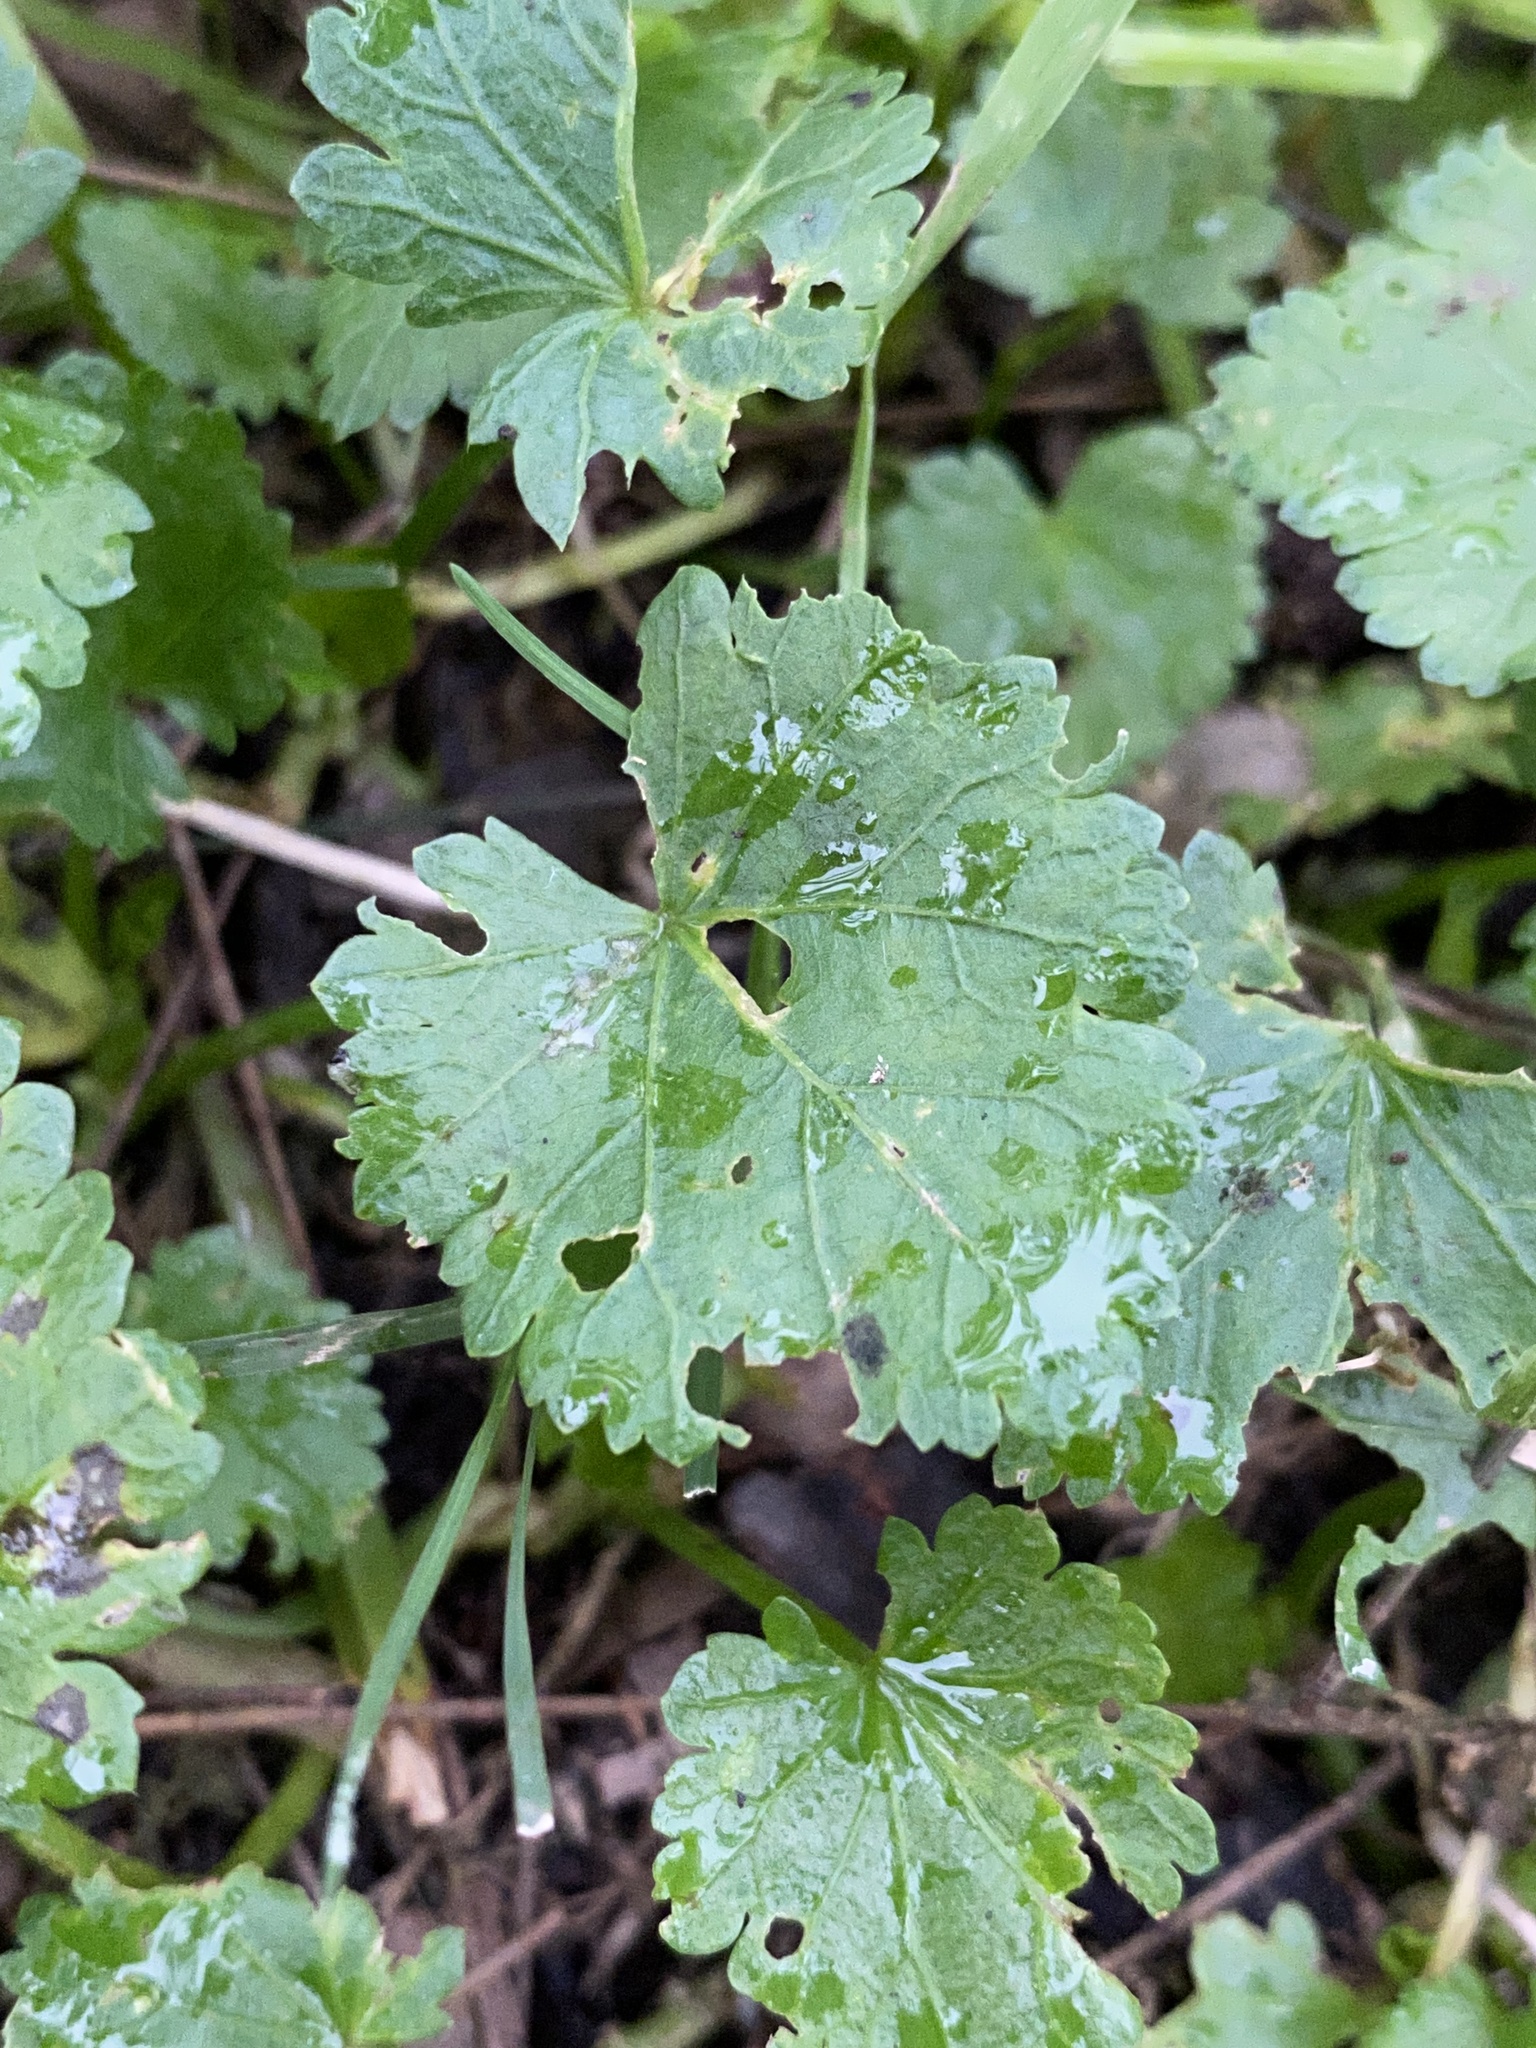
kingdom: Plantae
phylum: Tracheophyta
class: Magnoliopsida
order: Malvales
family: Malvaceae
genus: Modiola
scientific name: Modiola caroliniana
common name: Carolina bristlemallow
